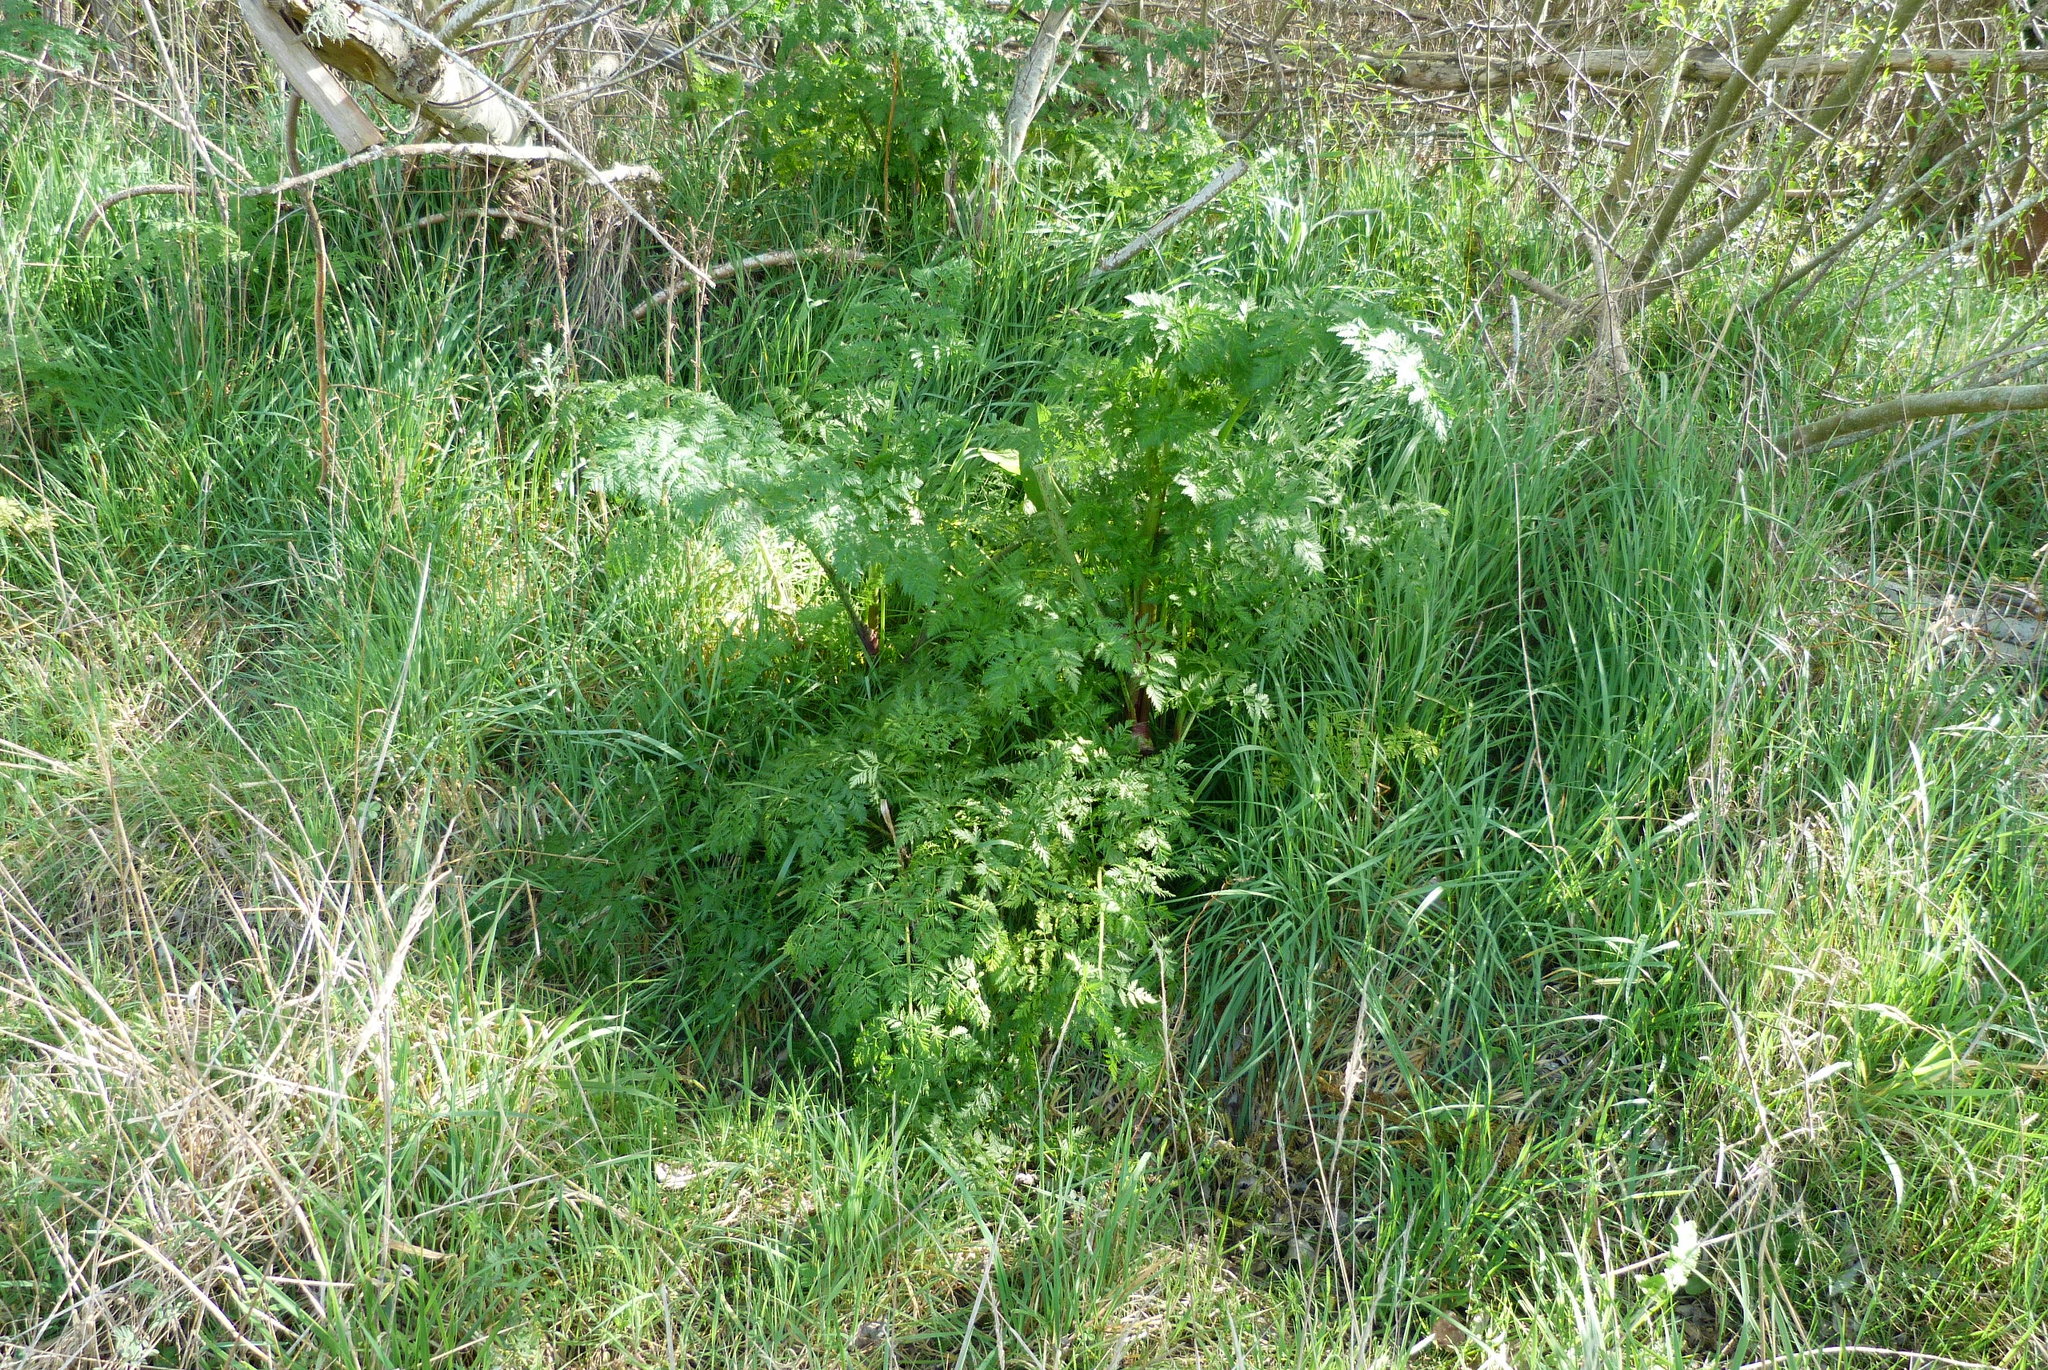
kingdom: Plantae
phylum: Tracheophyta
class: Magnoliopsida
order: Apiales
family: Apiaceae
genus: Conium
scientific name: Conium maculatum
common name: Hemlock
